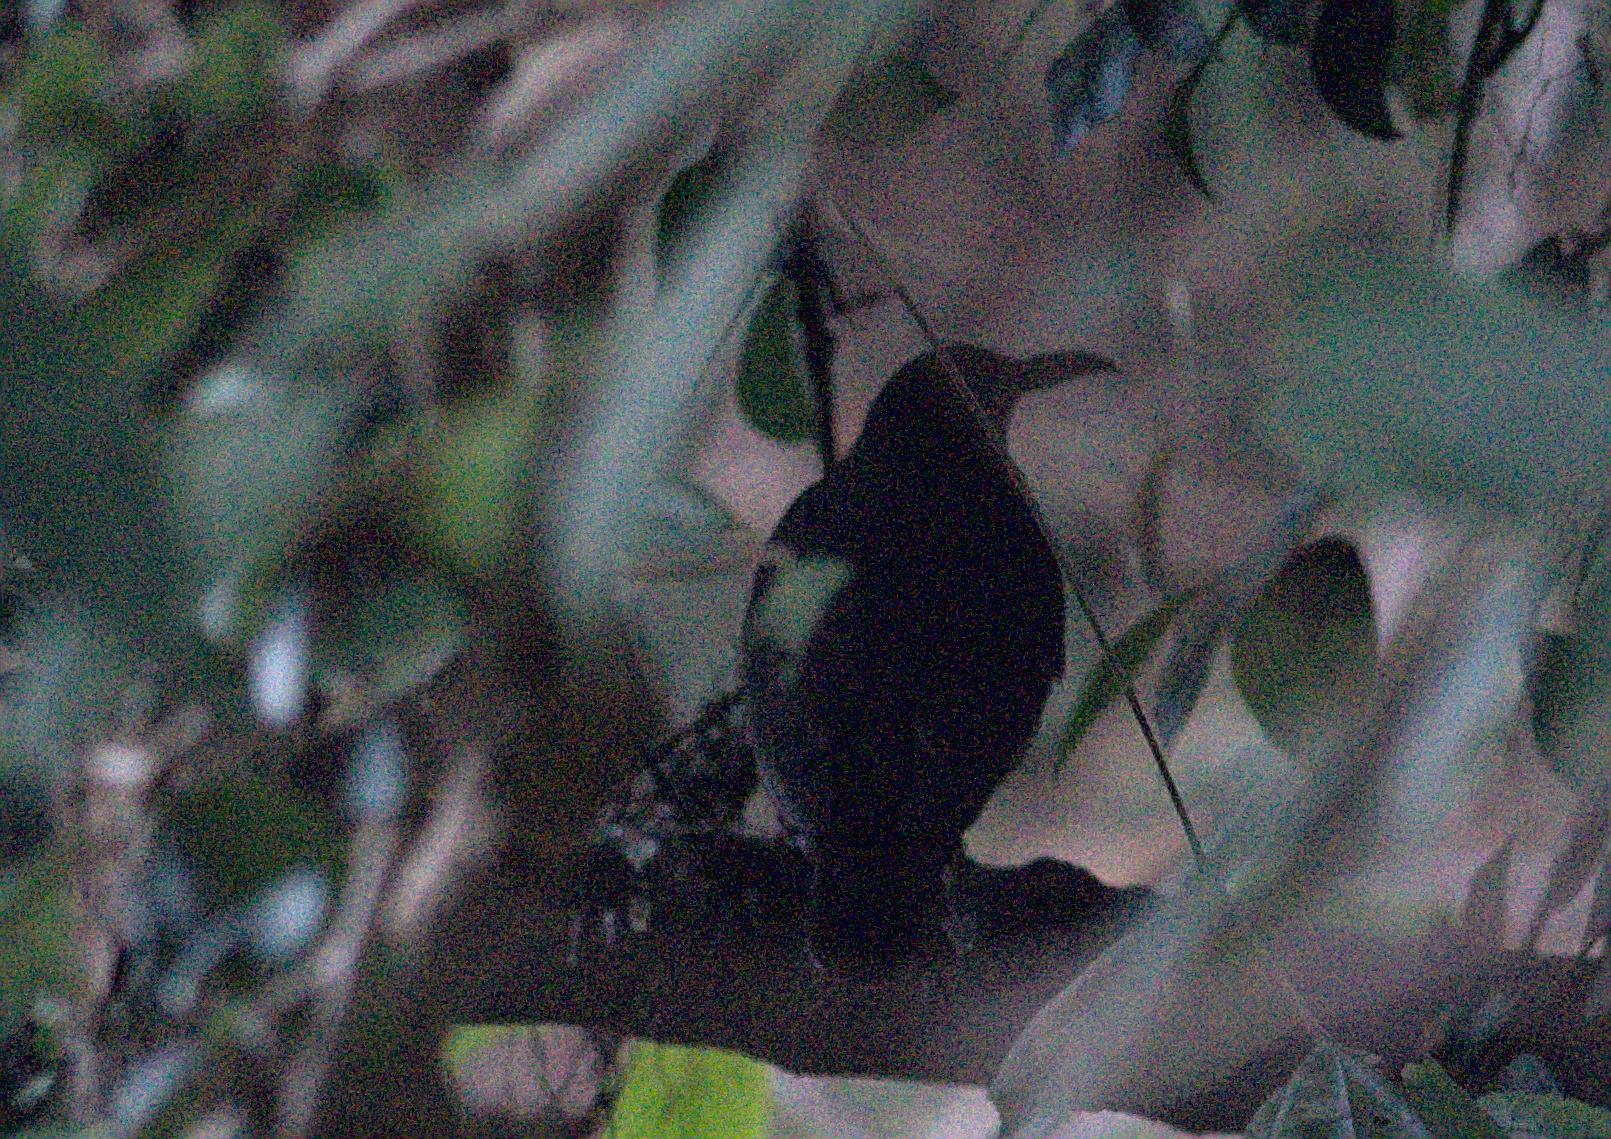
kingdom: Animalia
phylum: Chordata
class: Aves
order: Passeriformes
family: Turdidae
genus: Zoothera
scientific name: Zoothera monticola
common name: Long-billed thrush
